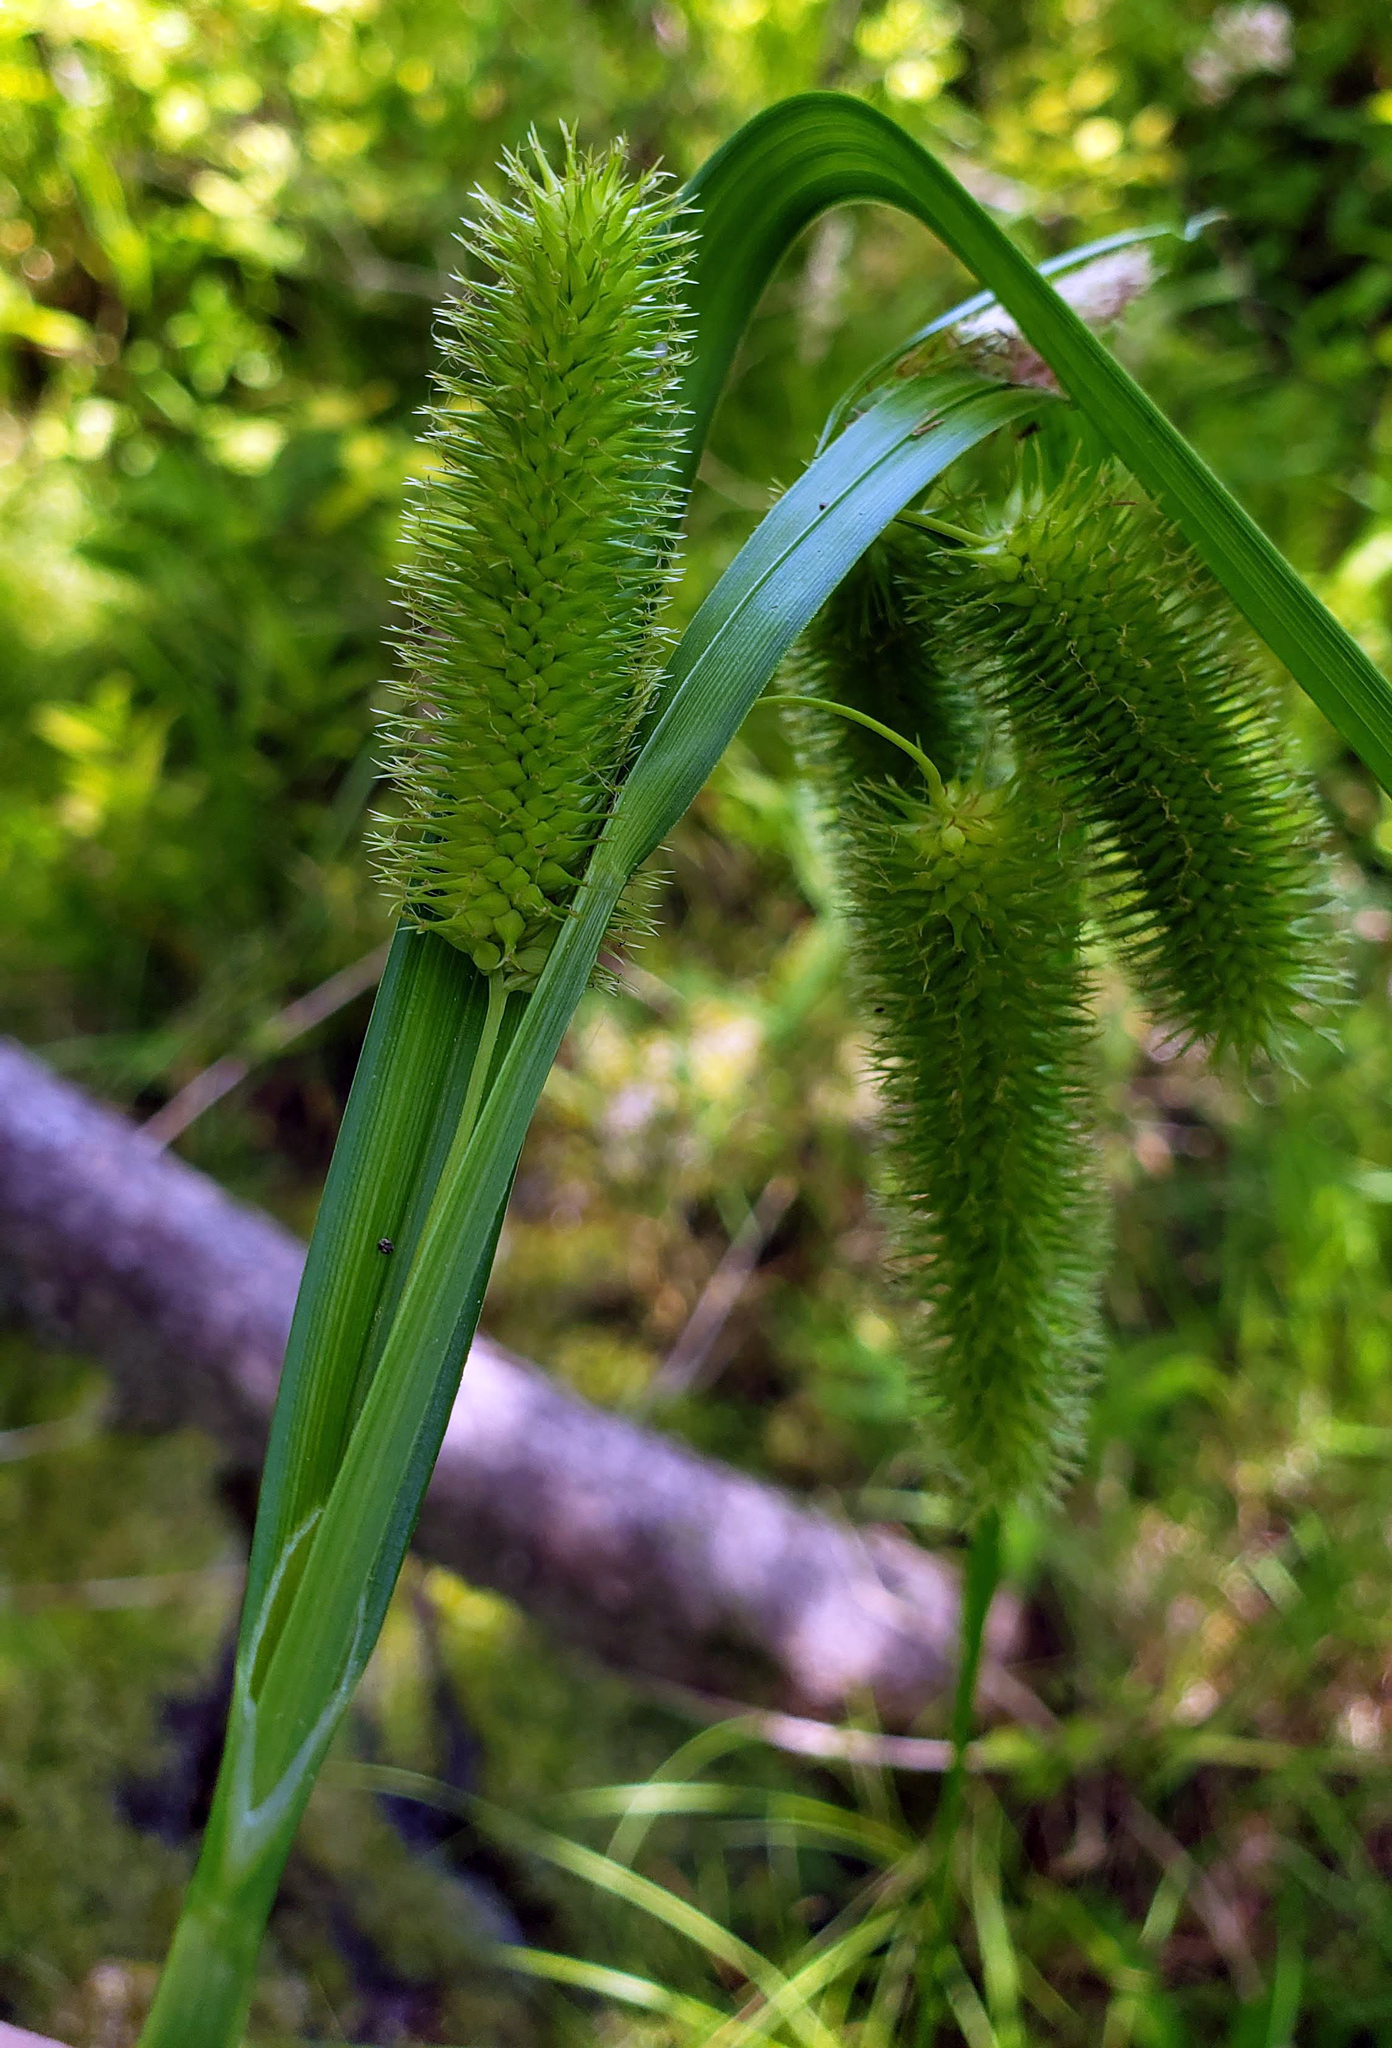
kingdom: Plantae
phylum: Tracheophyta
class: Liliopsida
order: Poales
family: Cyperaceae
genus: Carex
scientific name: Carex comosa
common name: Bristly sedge
